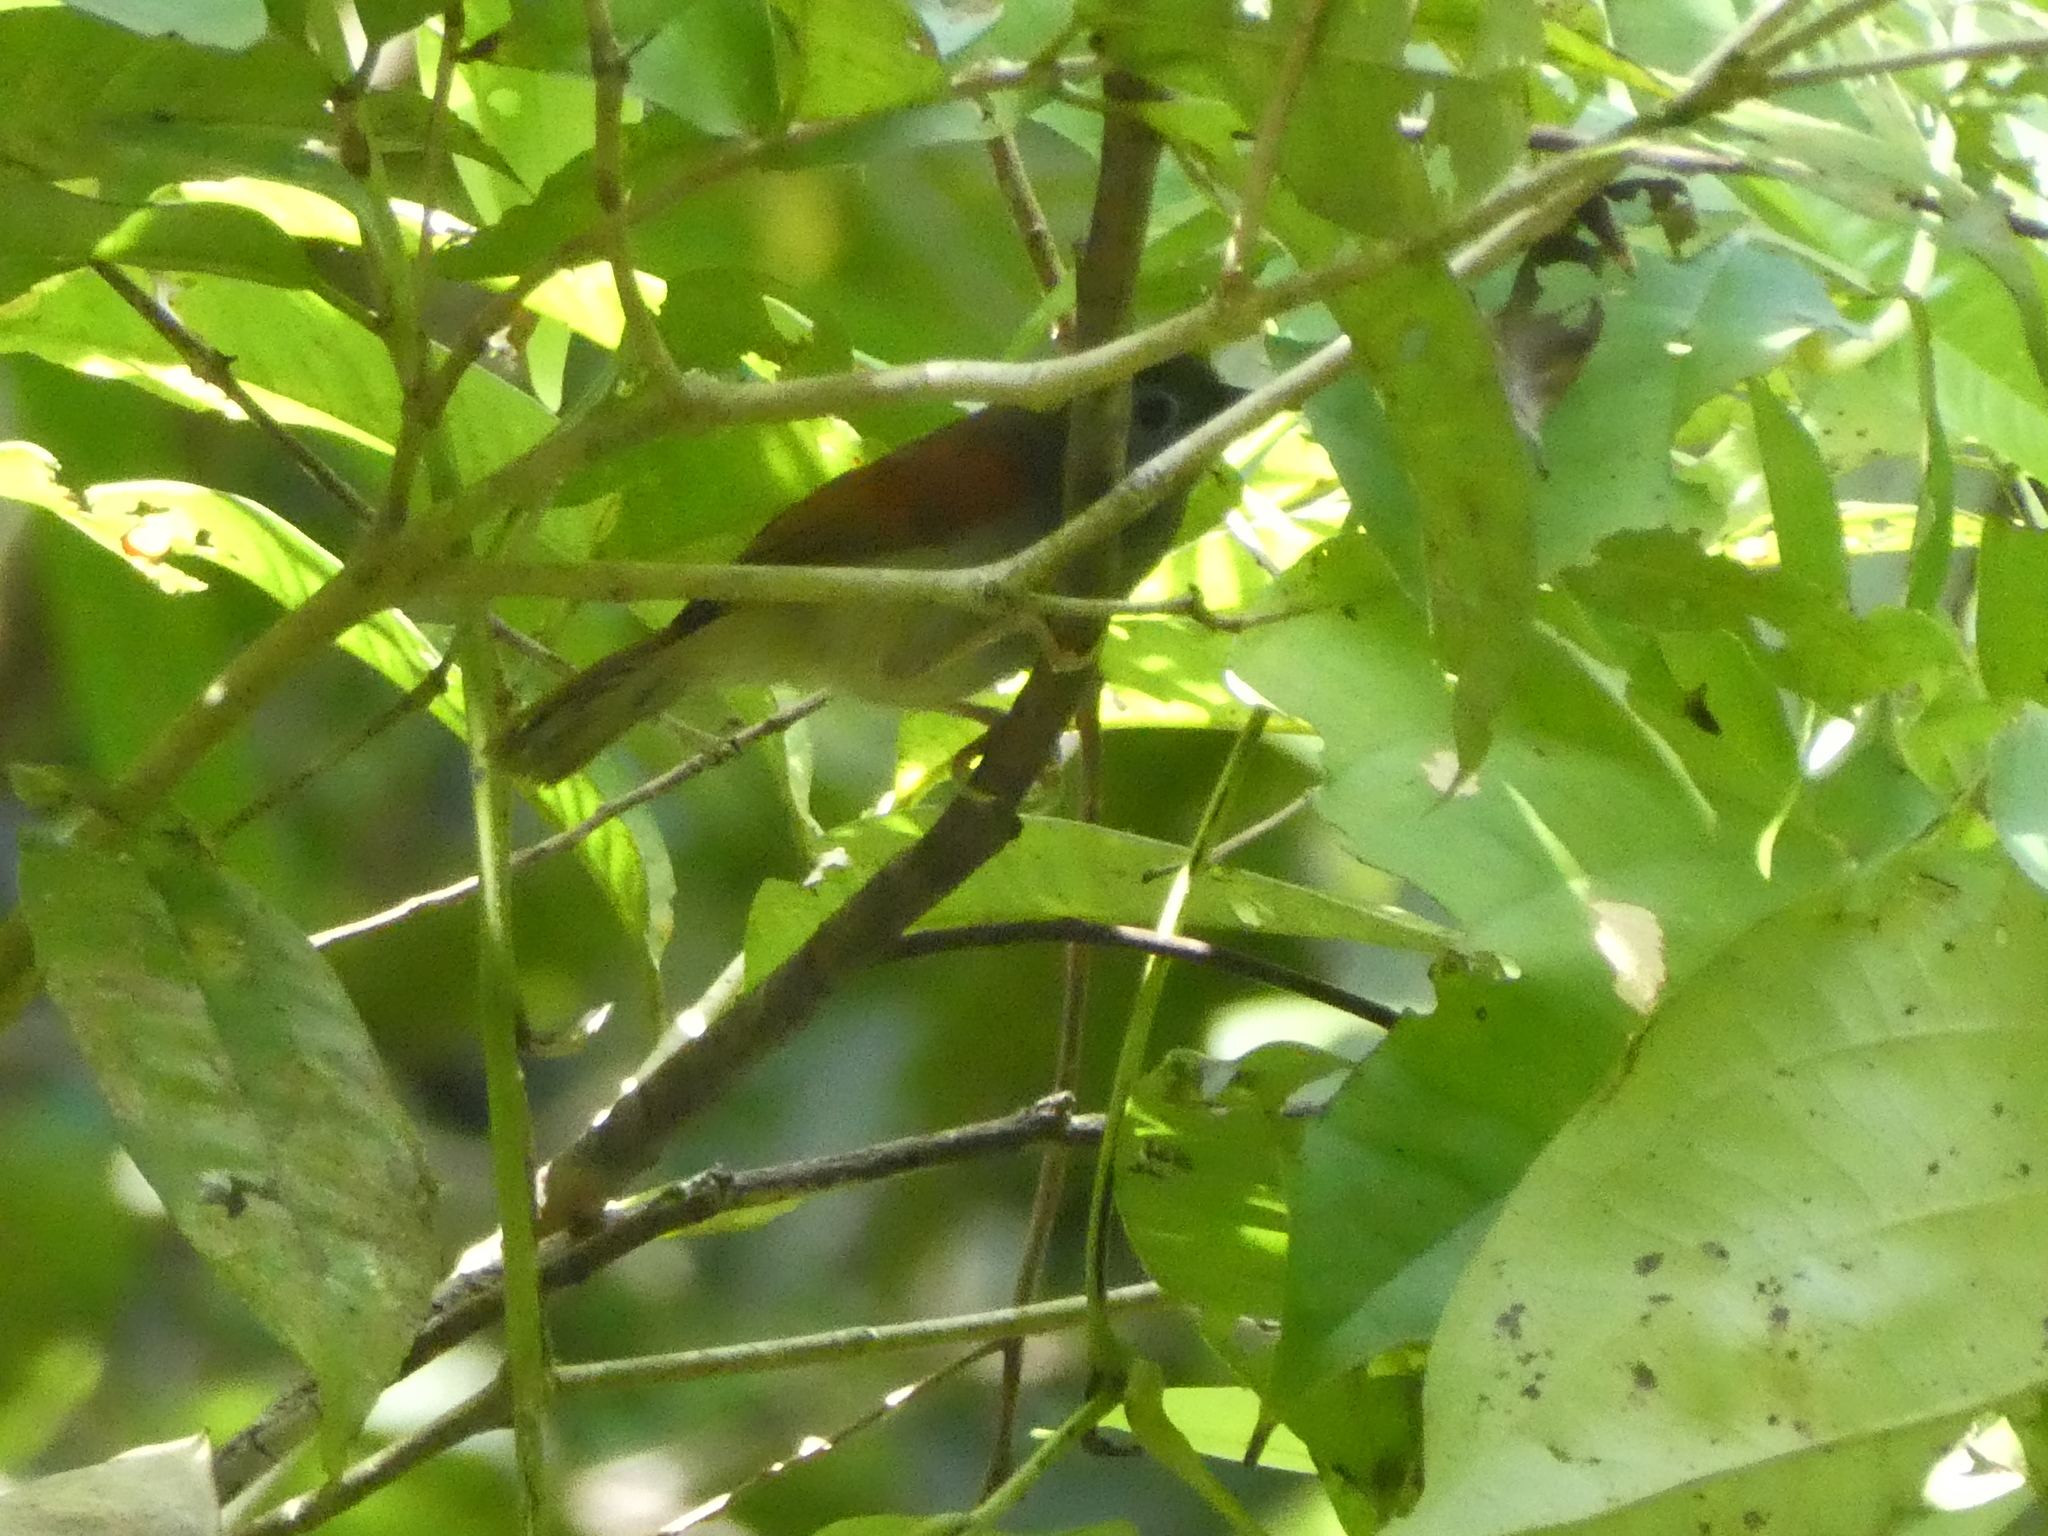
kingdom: Animalia
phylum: Chordata
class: Aves
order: Passeriformes
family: Timaliidae
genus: Stachyris
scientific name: Stachyris erythroptera
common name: Chestnut-winged babbler
